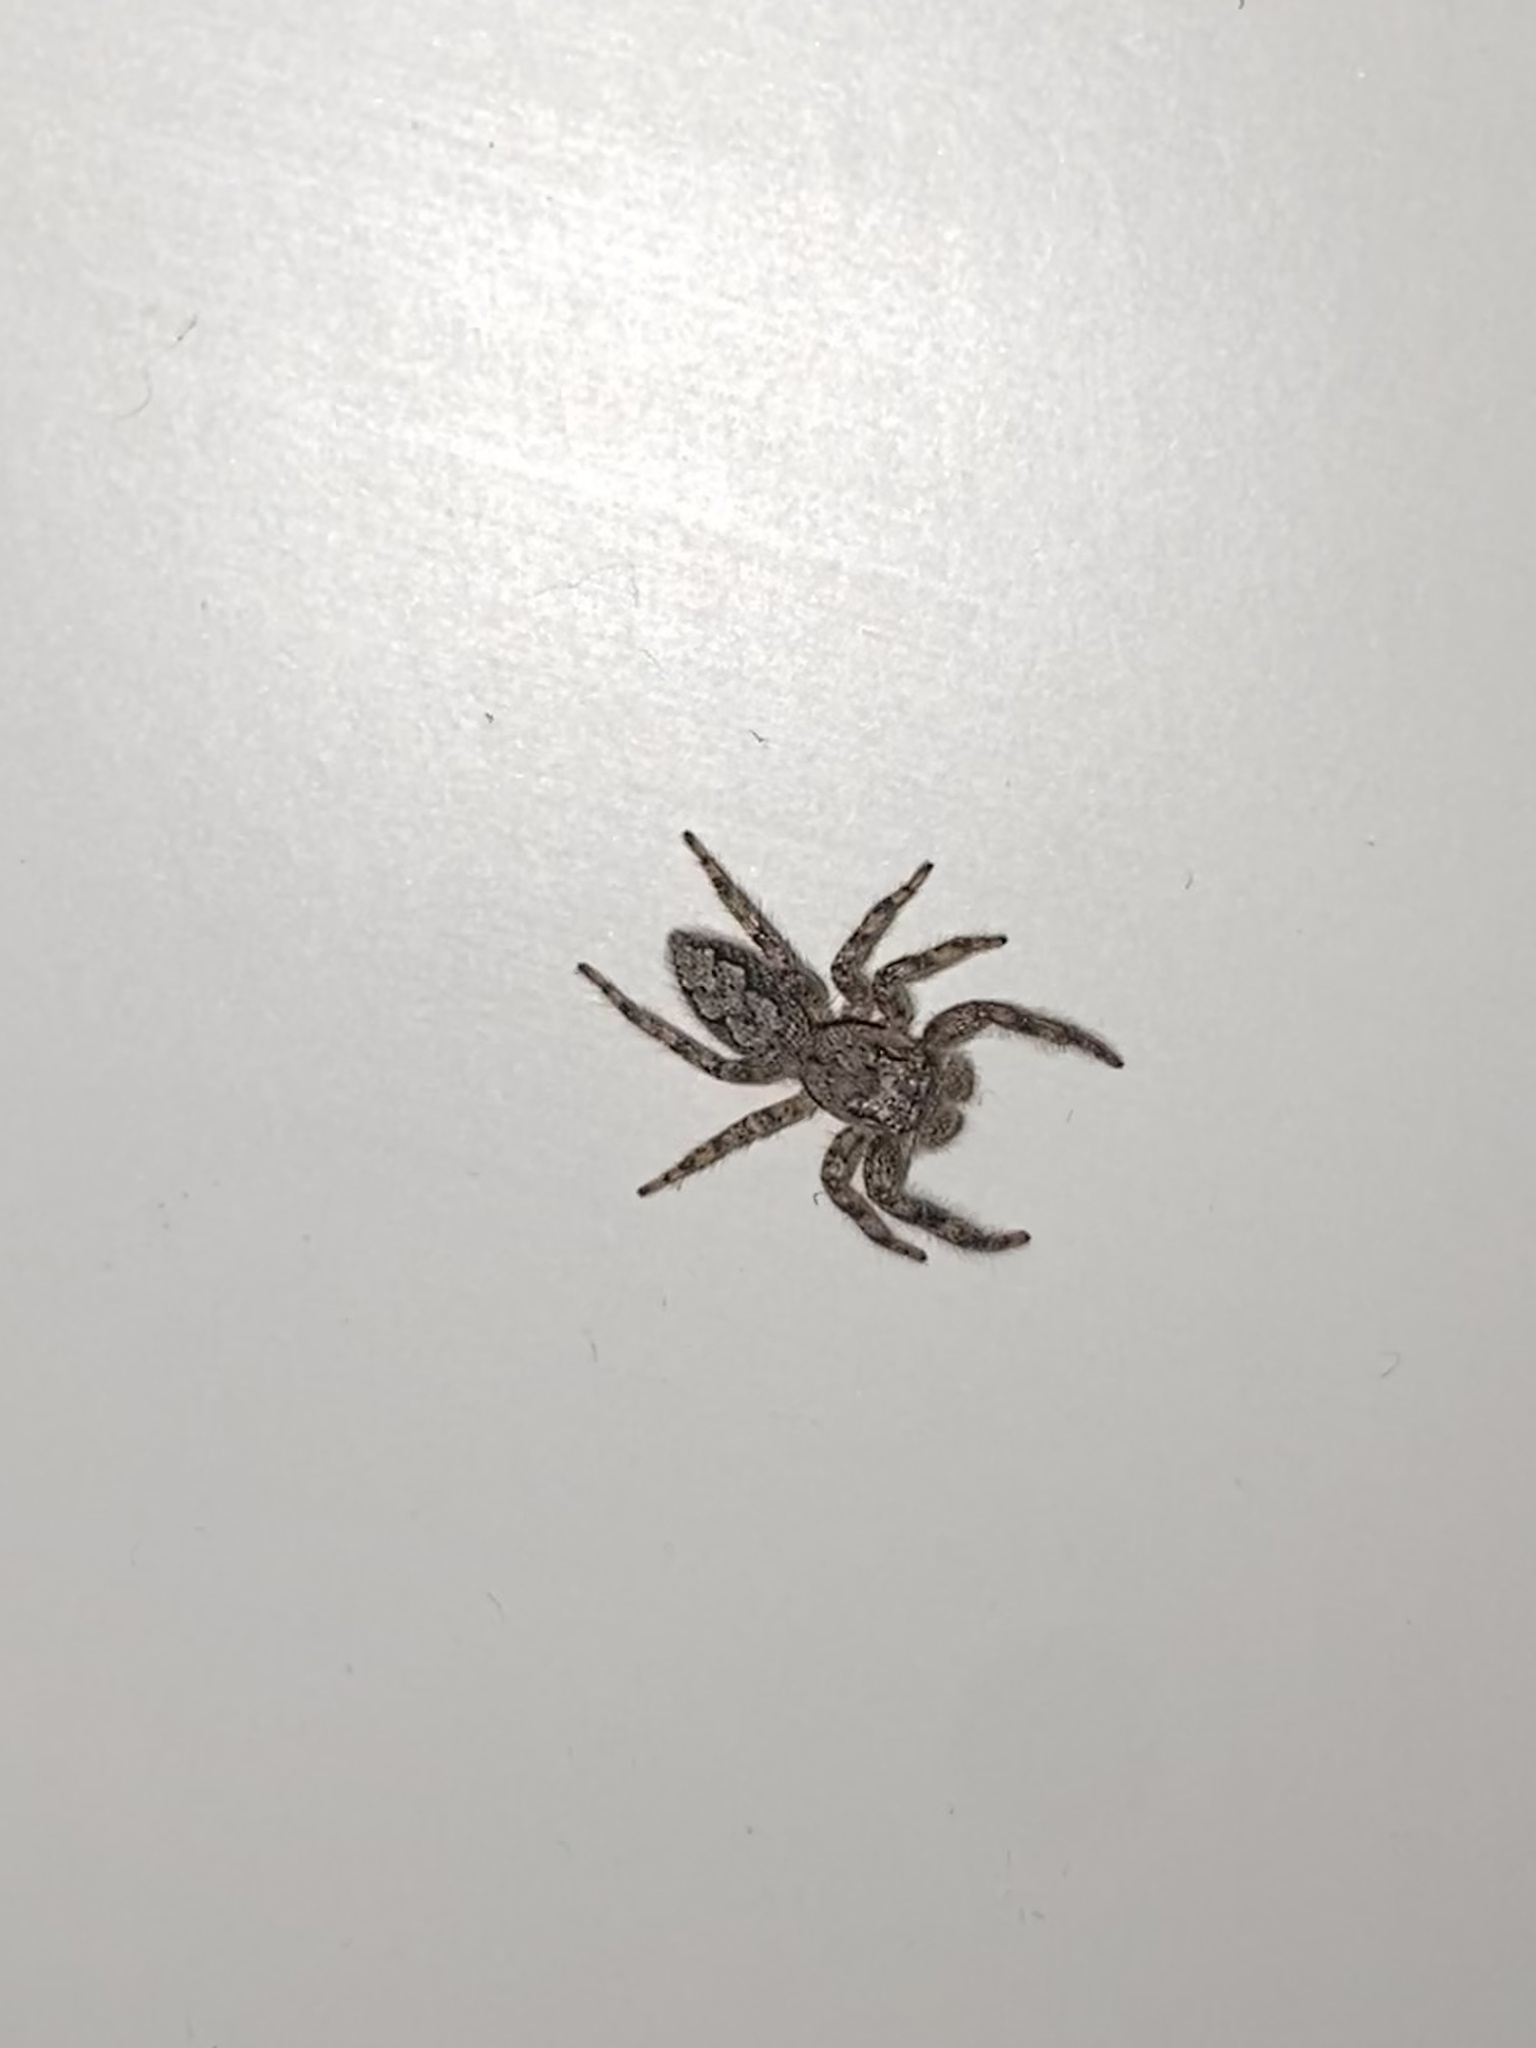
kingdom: Animalia
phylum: Arthropoda
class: Arachnida
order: Araneae
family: Salticidae
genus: Platycryptus
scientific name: Platycryptus undatus
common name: Tan jumping spider
